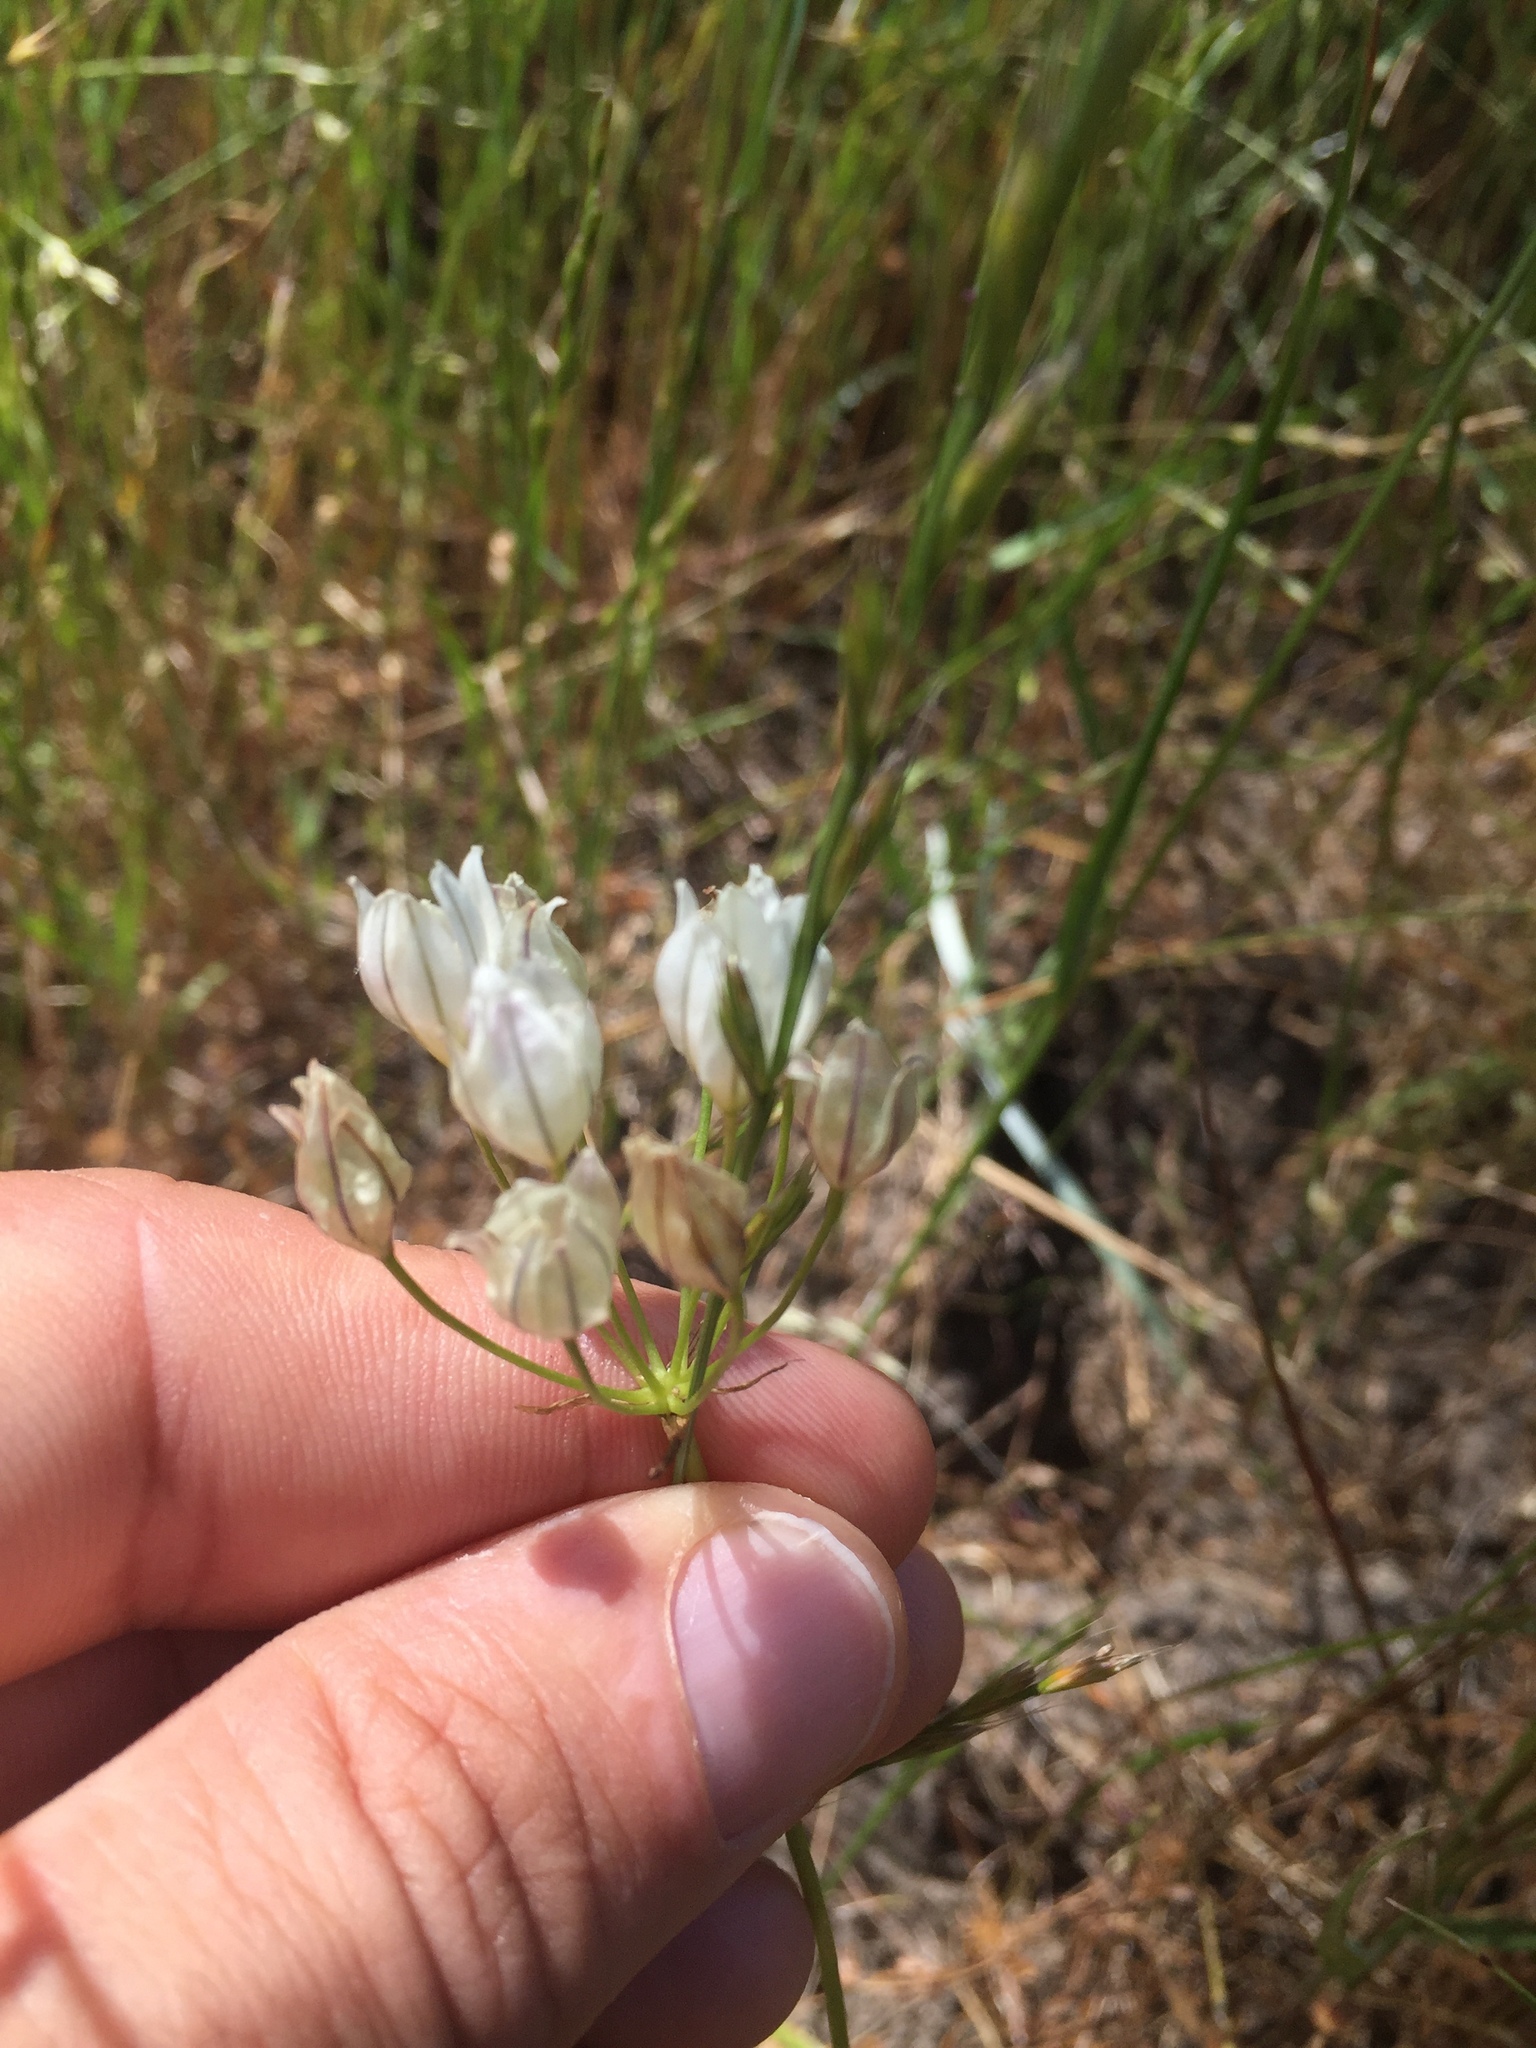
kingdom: Plantae
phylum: Tracheophyta
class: Liliopsida
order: Asparagales
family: Asparagaceae
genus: Triteleia
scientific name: Triteleia hyacinthina
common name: White brodiaea
